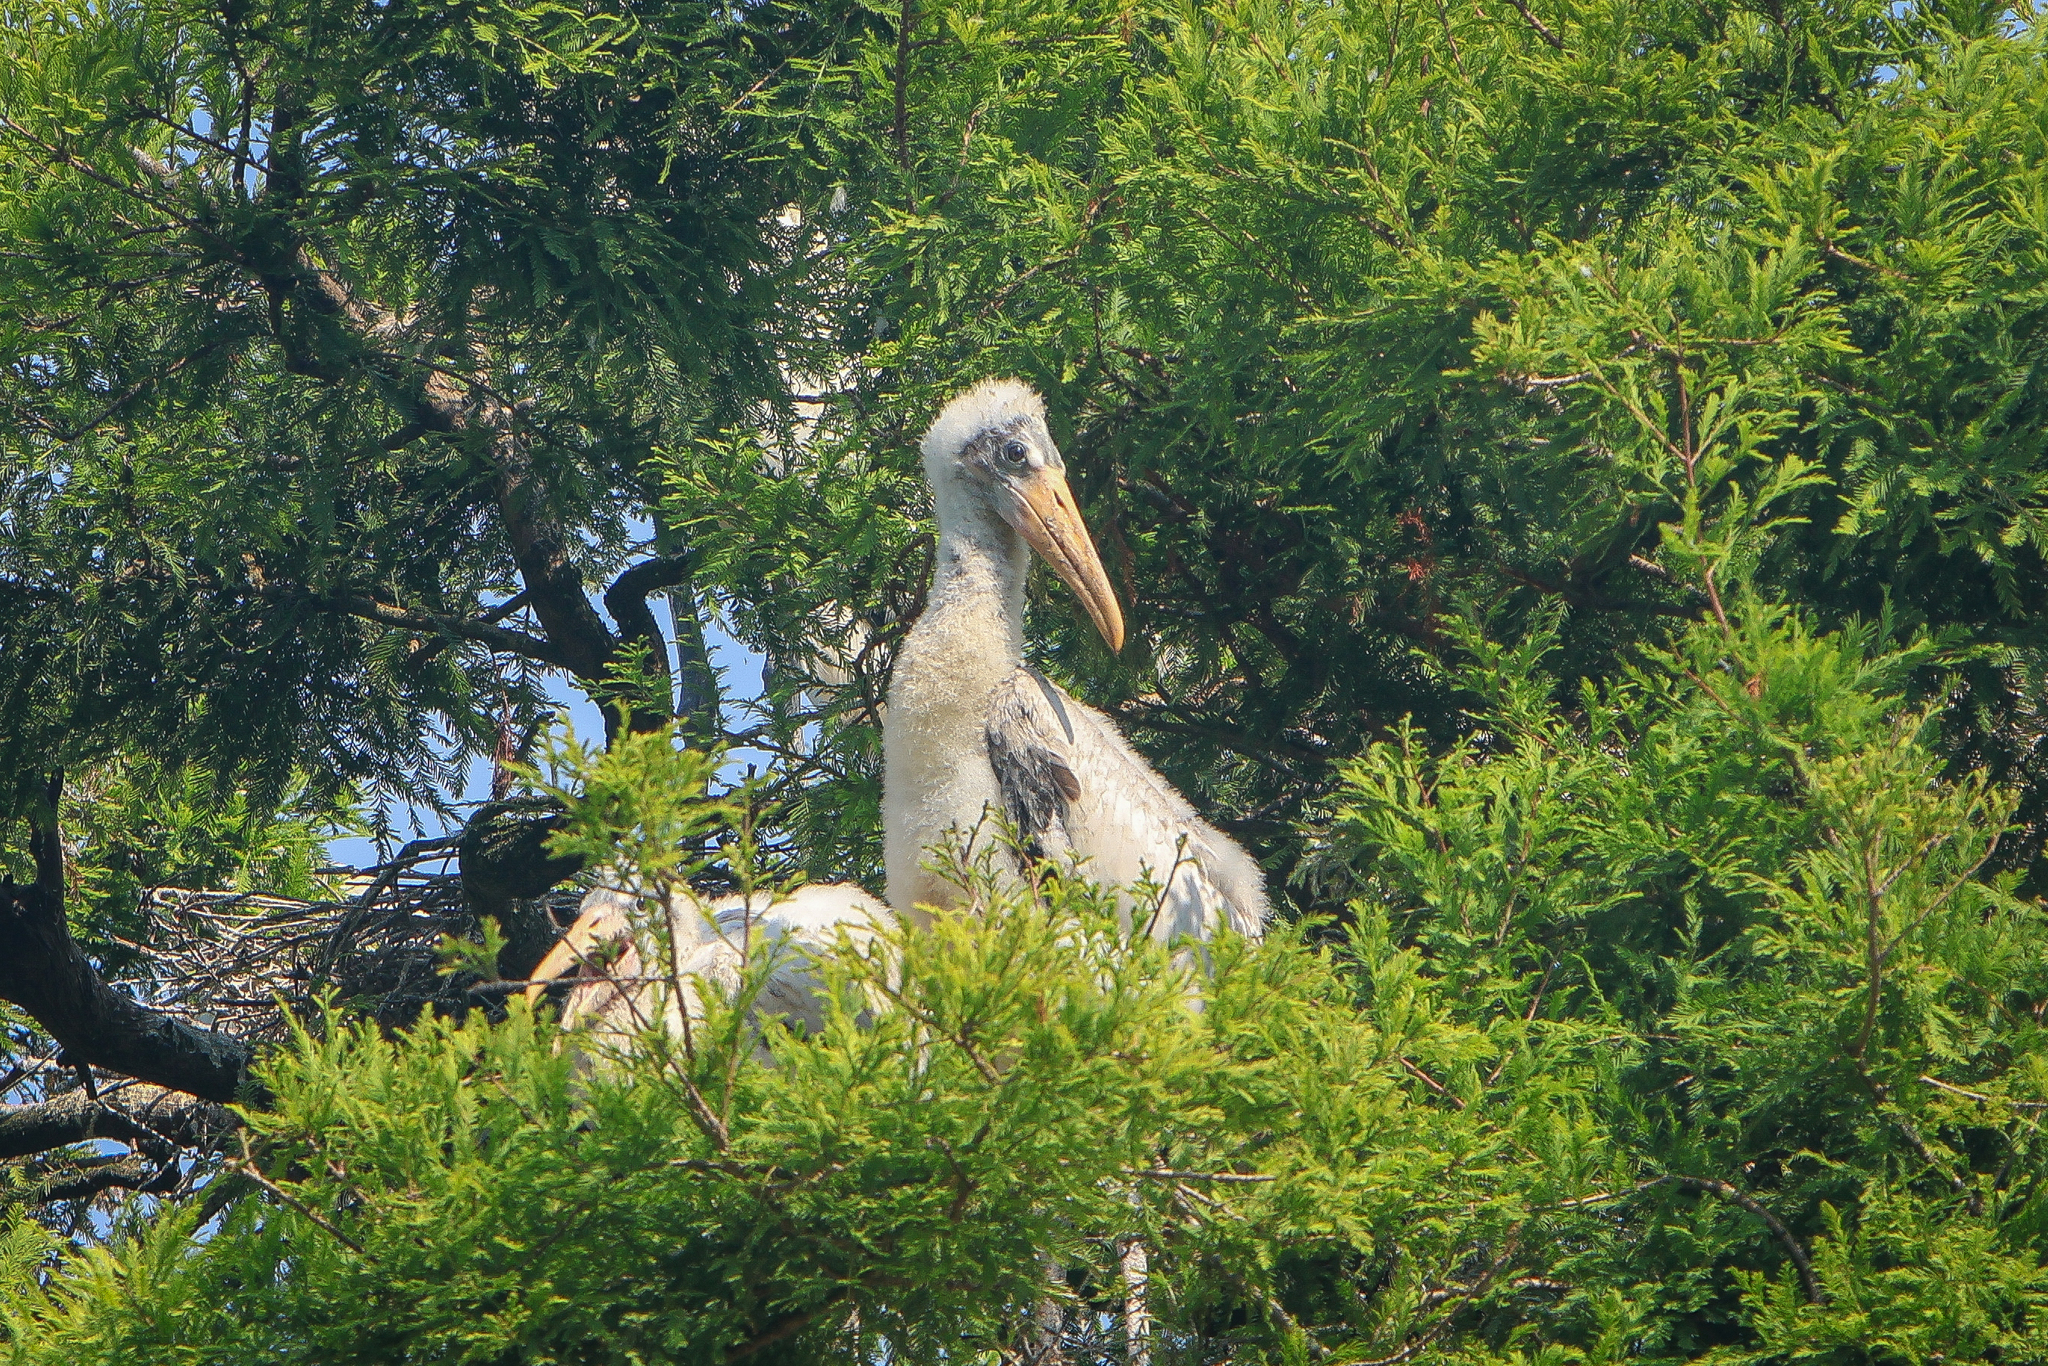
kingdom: Animalia
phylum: Chordata
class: Aves
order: Ciconiiformes
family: Ciconiidae
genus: Mycteria
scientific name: Mycteria americana
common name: Wood stork
